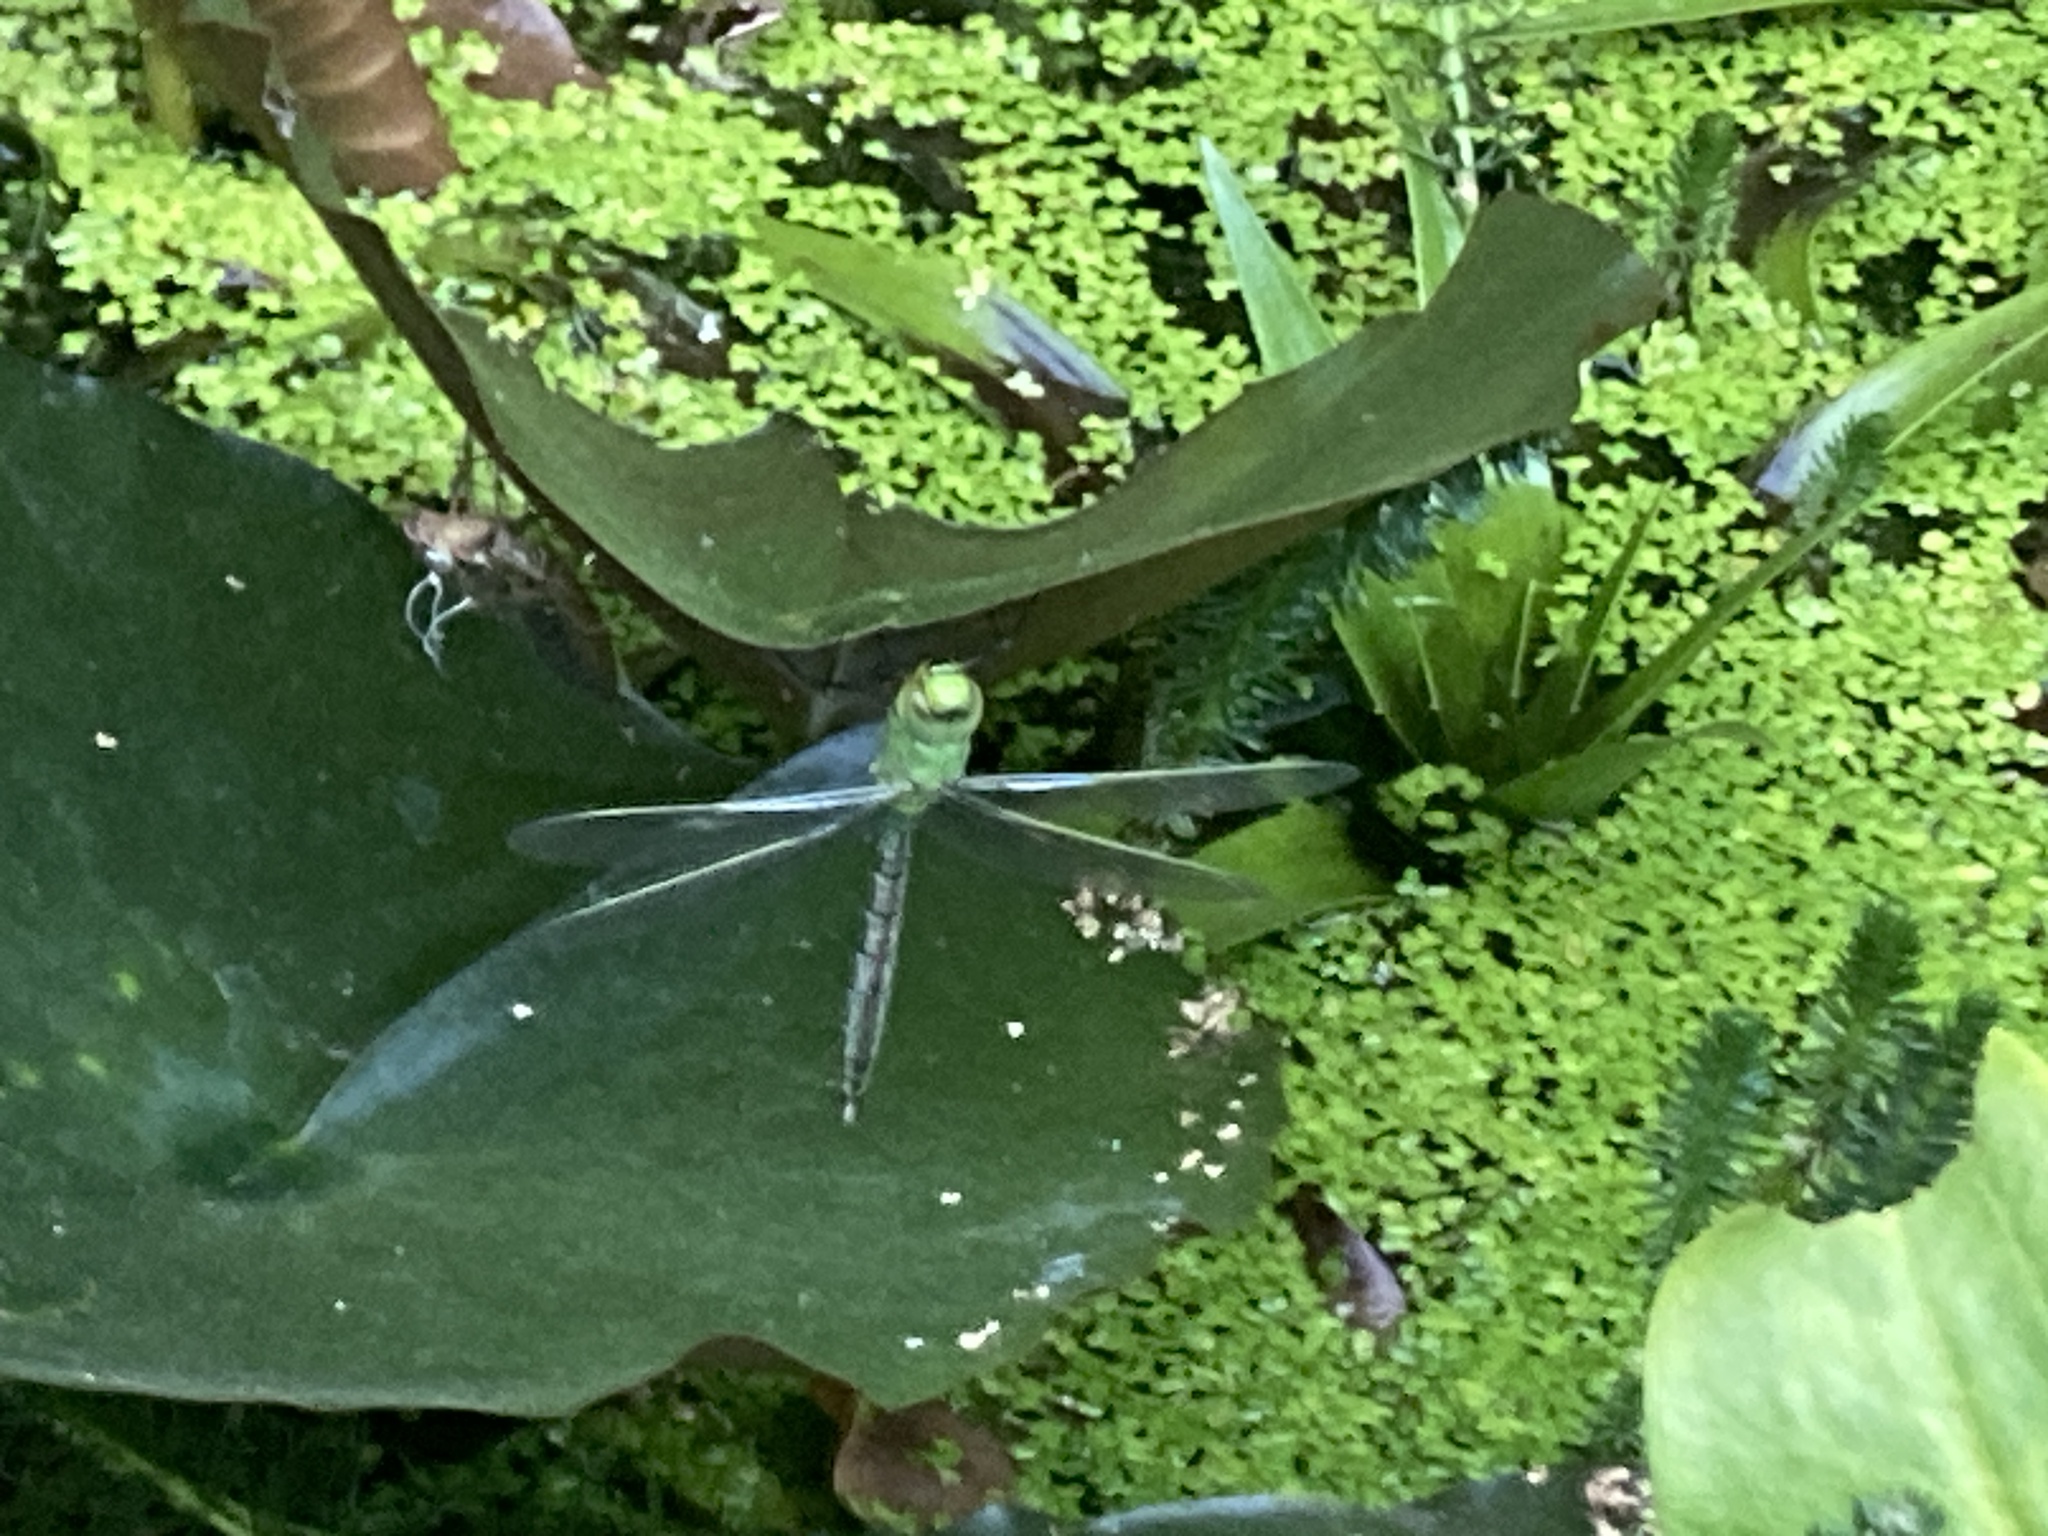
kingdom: Animalia
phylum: Arthropoda
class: Insecta
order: Odonata
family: Aeshnidae
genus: Anax
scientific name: Anax imperator
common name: Emperor dragonfly
